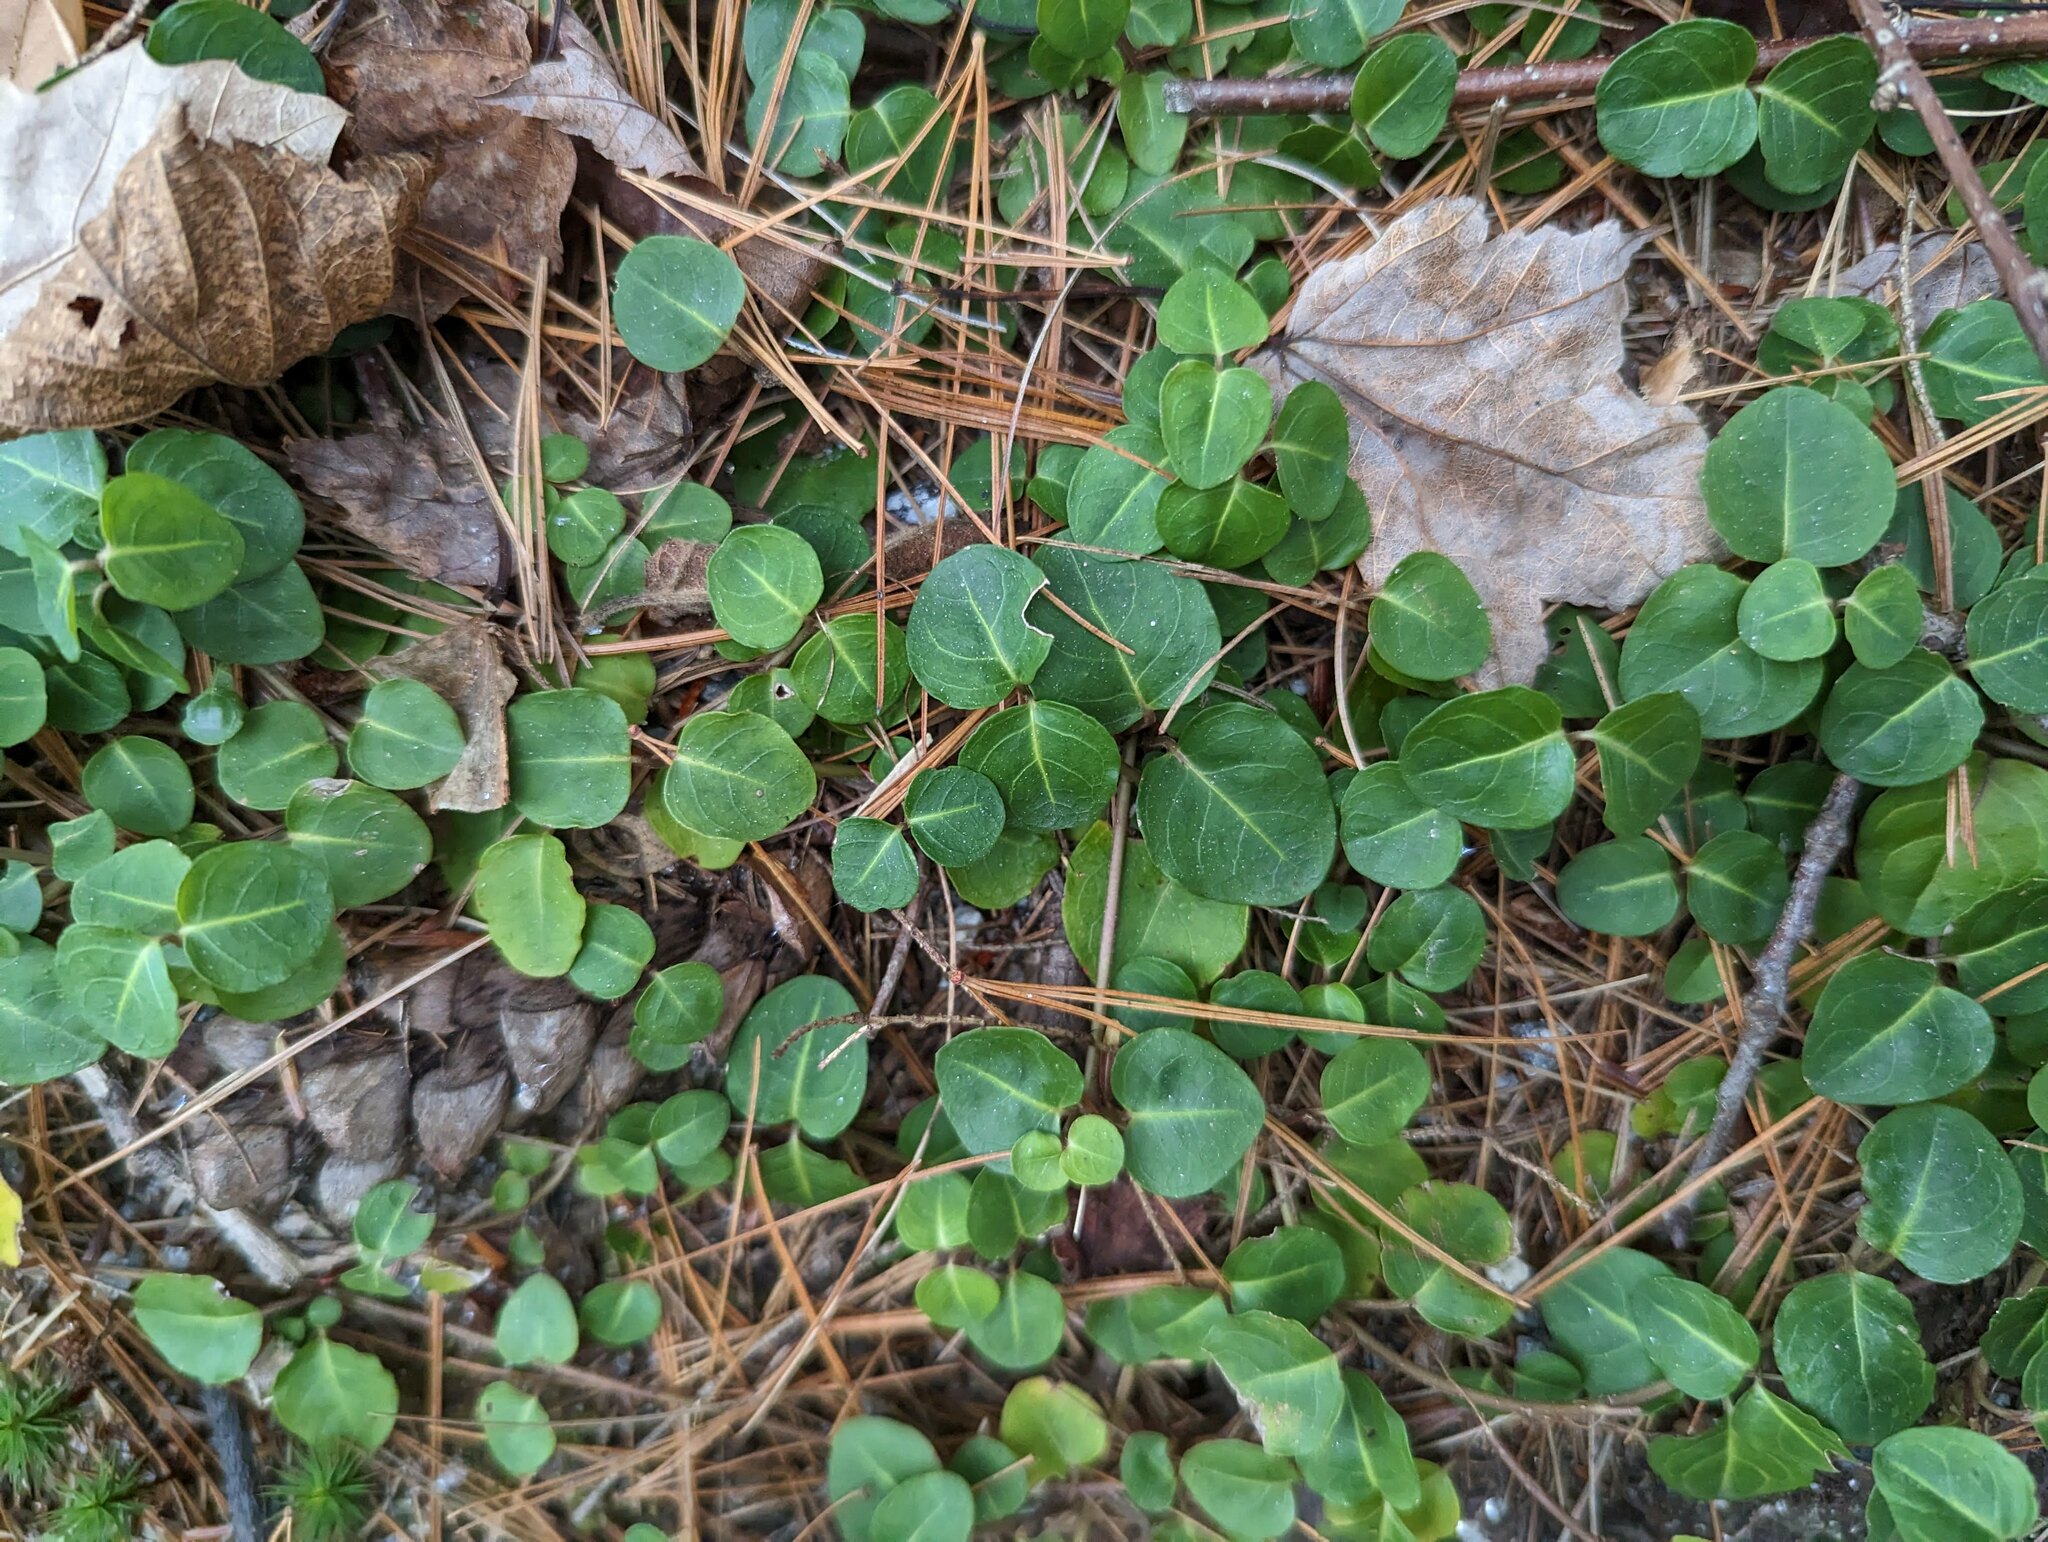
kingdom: Plantae
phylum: Tracheophyta
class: Magnoliopsida
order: Gentianales
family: Rubiaceae
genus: Mitchella
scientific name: Mitchella repens
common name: Partridge-berry
